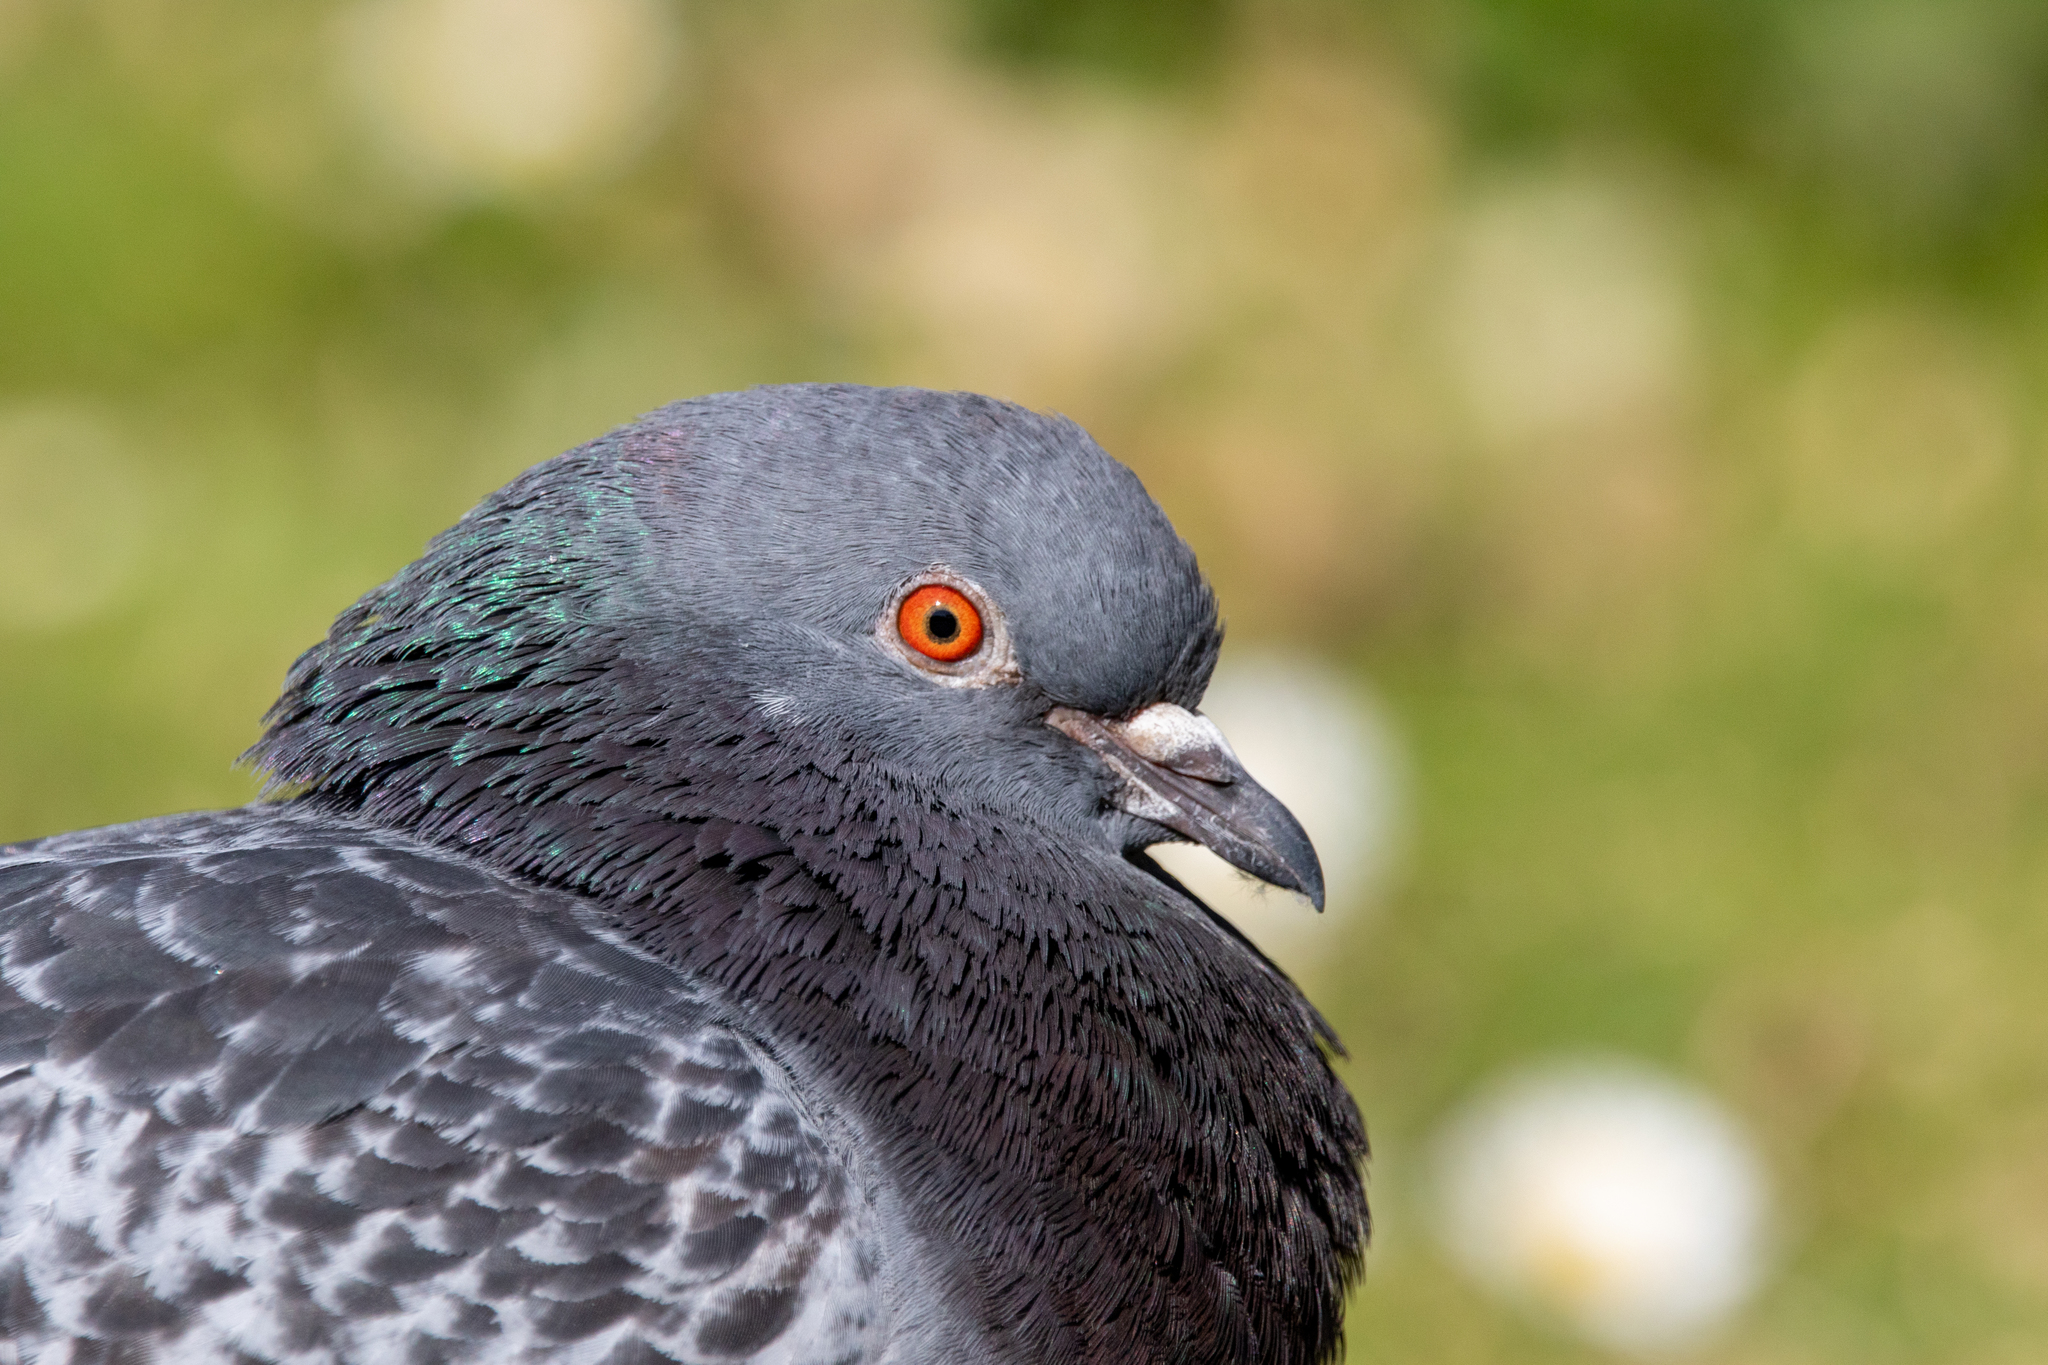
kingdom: Animalia
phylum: Chordata
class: Aves
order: Columbiformes
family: Columbidae
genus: Columba
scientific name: Columba livia
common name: Rock pigeon
